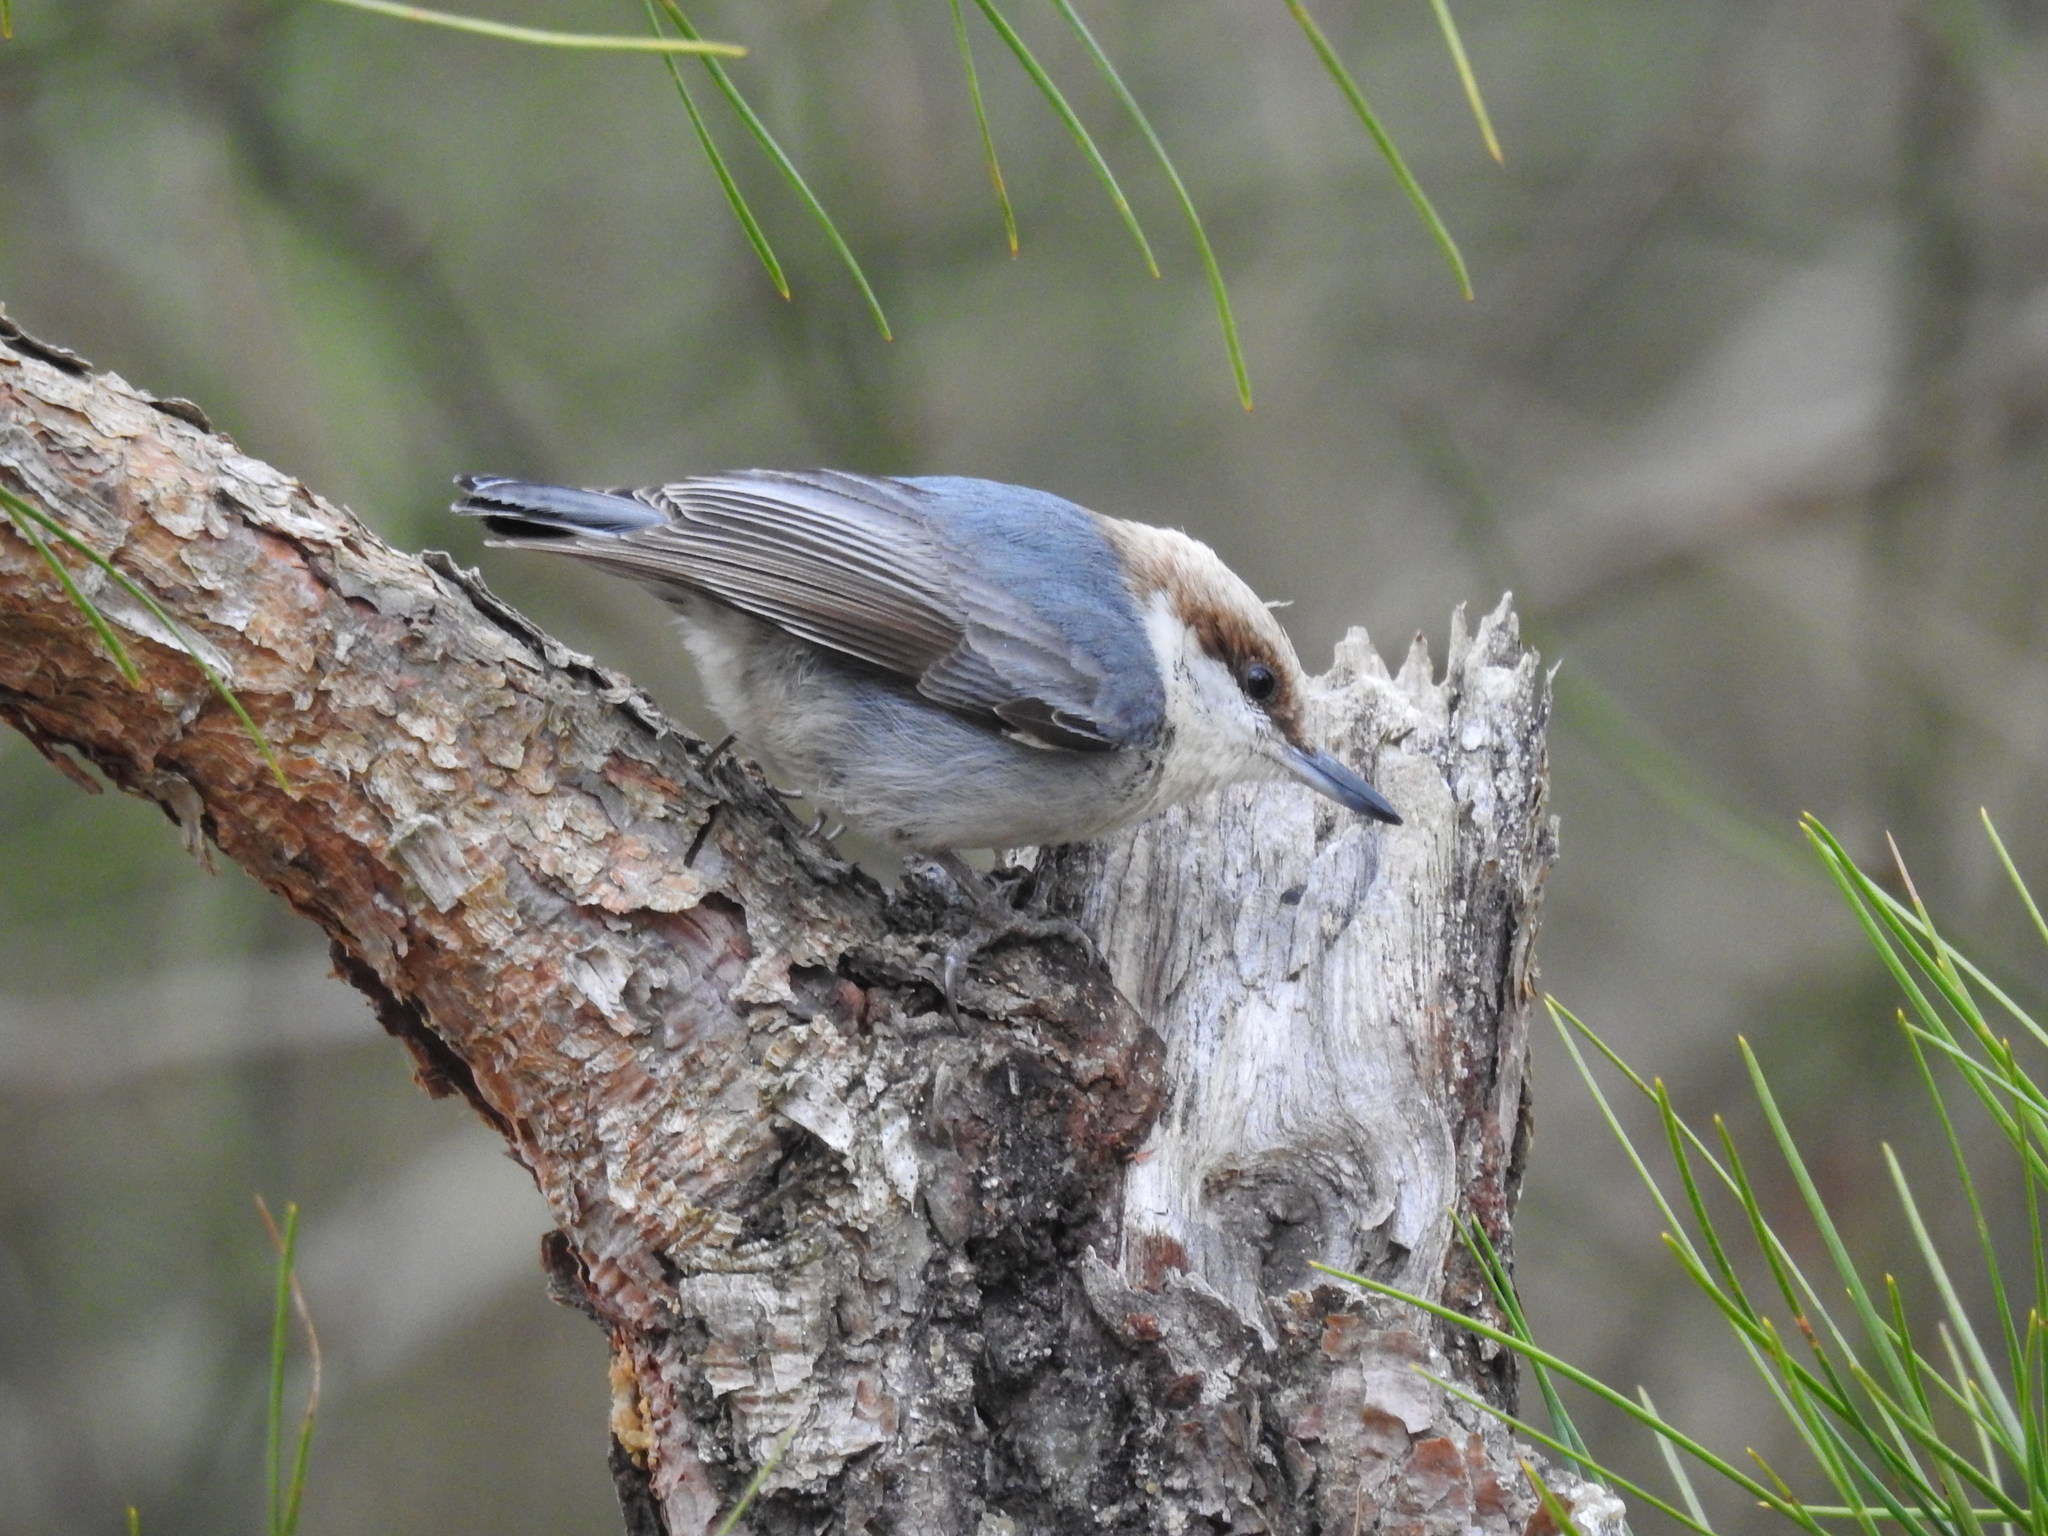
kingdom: Animalia
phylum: Chordata
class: Aves
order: Passeriformes
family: Sittidae
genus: Sitta
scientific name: Sitta pusilla
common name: Brown-headed nuthatch
